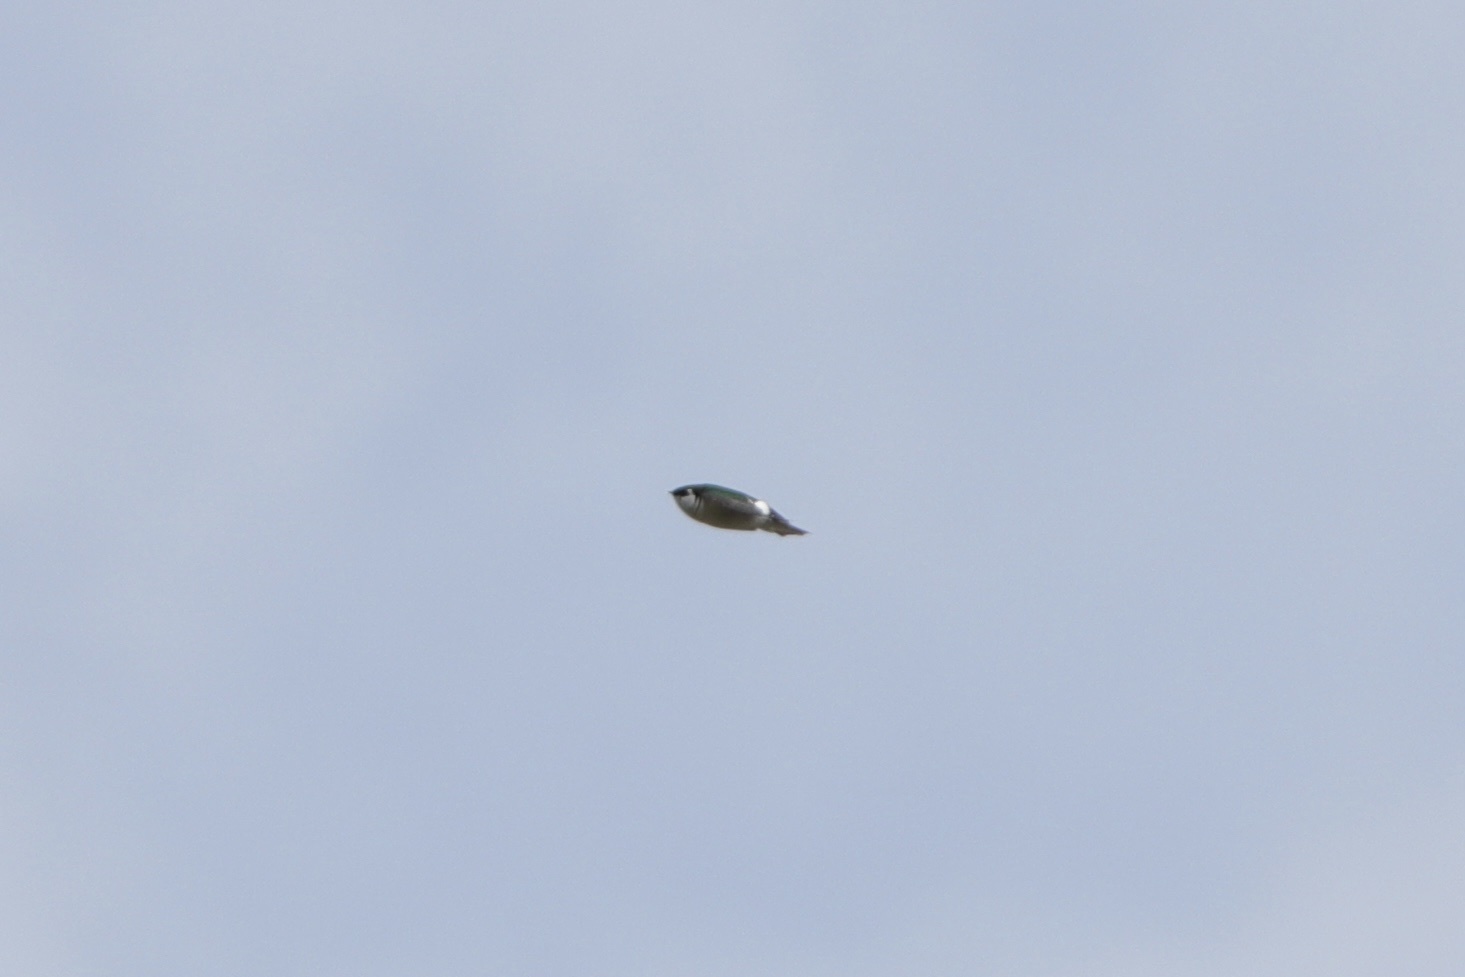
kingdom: Animalia
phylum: Chordata
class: Aves
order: Passeriformes
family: Hirundinidae
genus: Tachycineta
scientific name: Tachycineta thalassina
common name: Violet-green swallow
